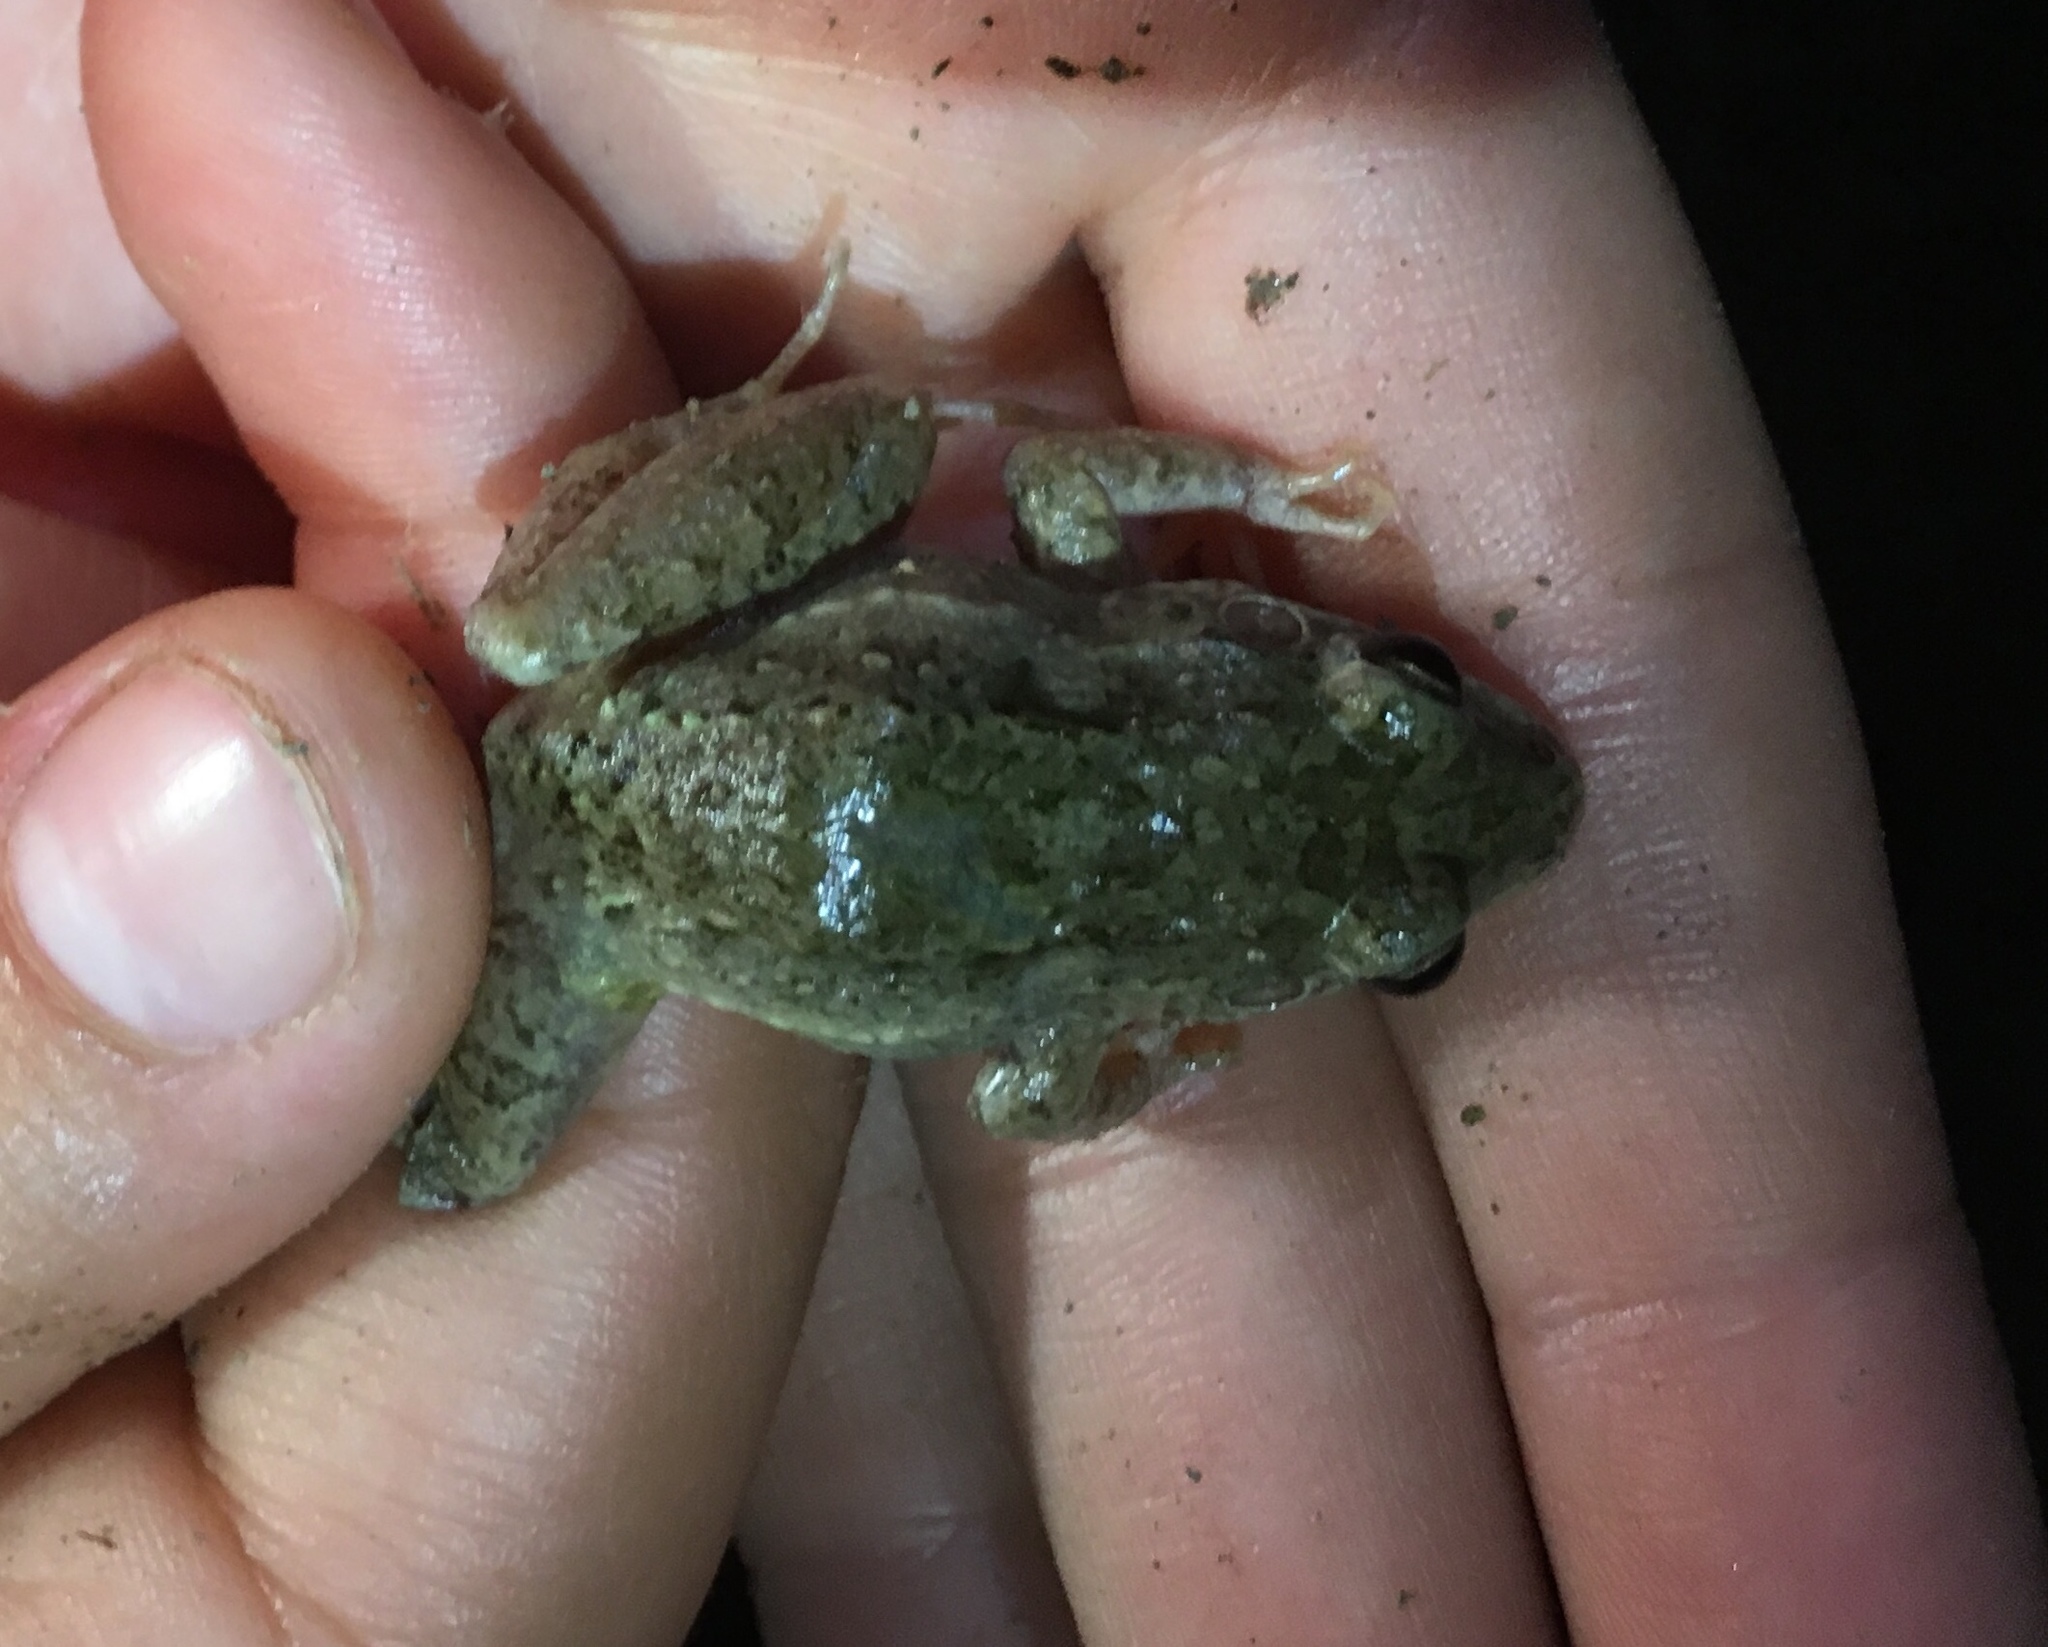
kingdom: Animalia
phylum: Chordata
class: Amphibia
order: Anura
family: Leptodactylidae
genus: Leptodactylus
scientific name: Leptodactylus fragilis
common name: Mexican white-lipped frog
